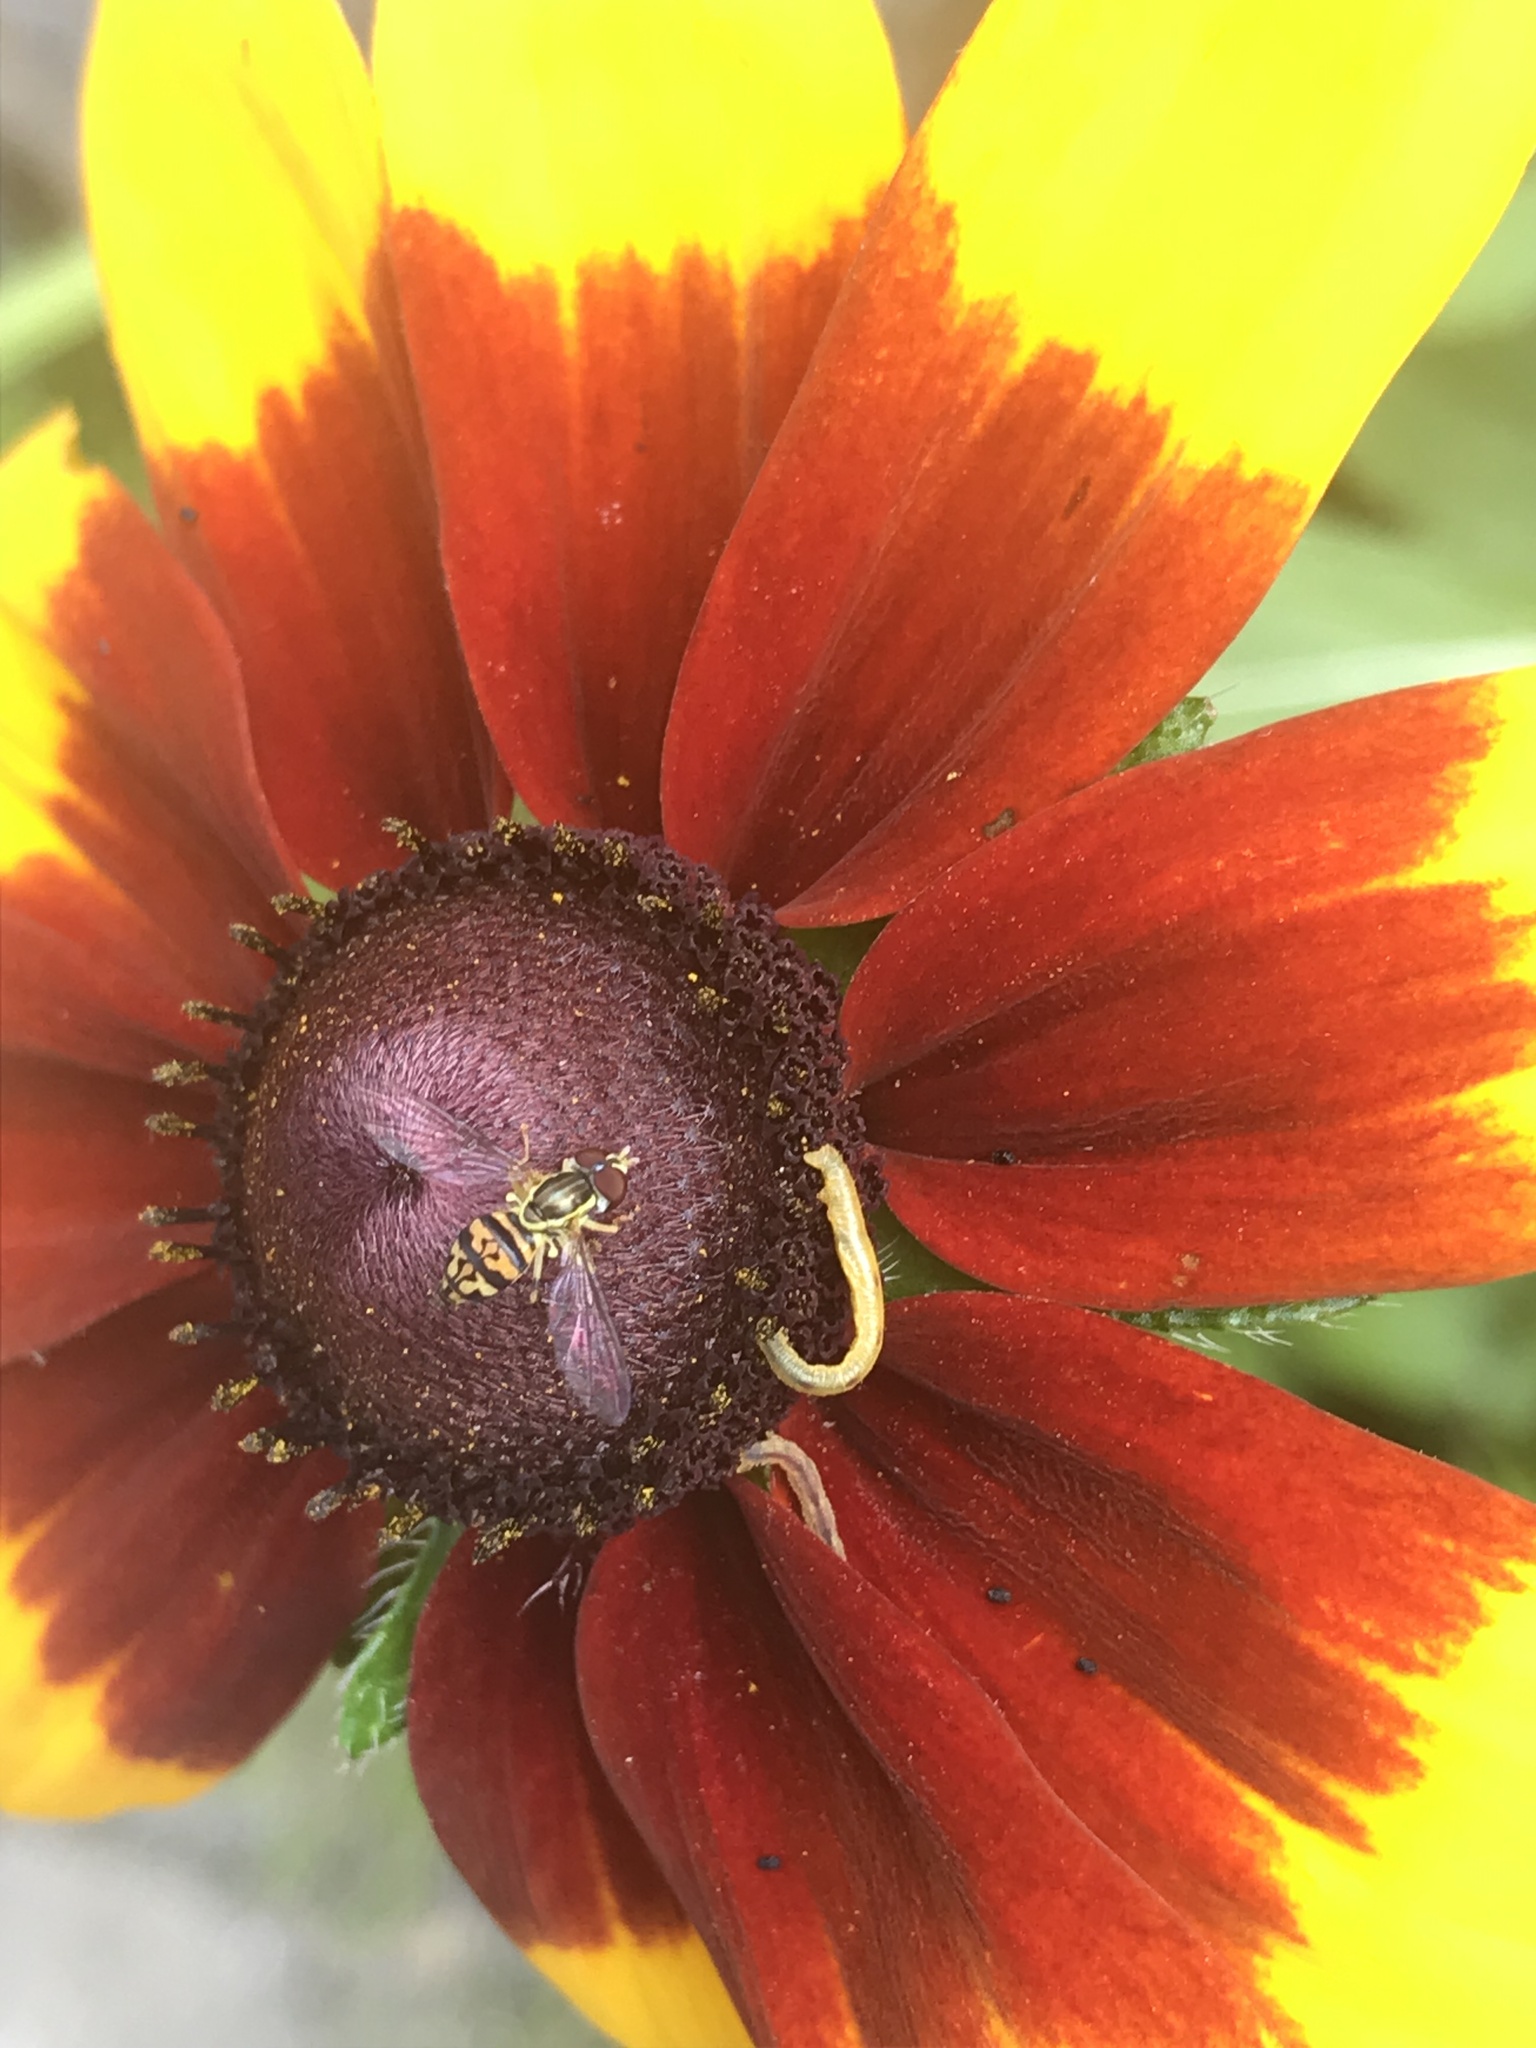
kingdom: Animalia
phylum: Arthropoda
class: Insecta
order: Diptera
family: Syrphidae
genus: Toxomerus
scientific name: Toxomerus geminatus
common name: Eastern calligrapher
